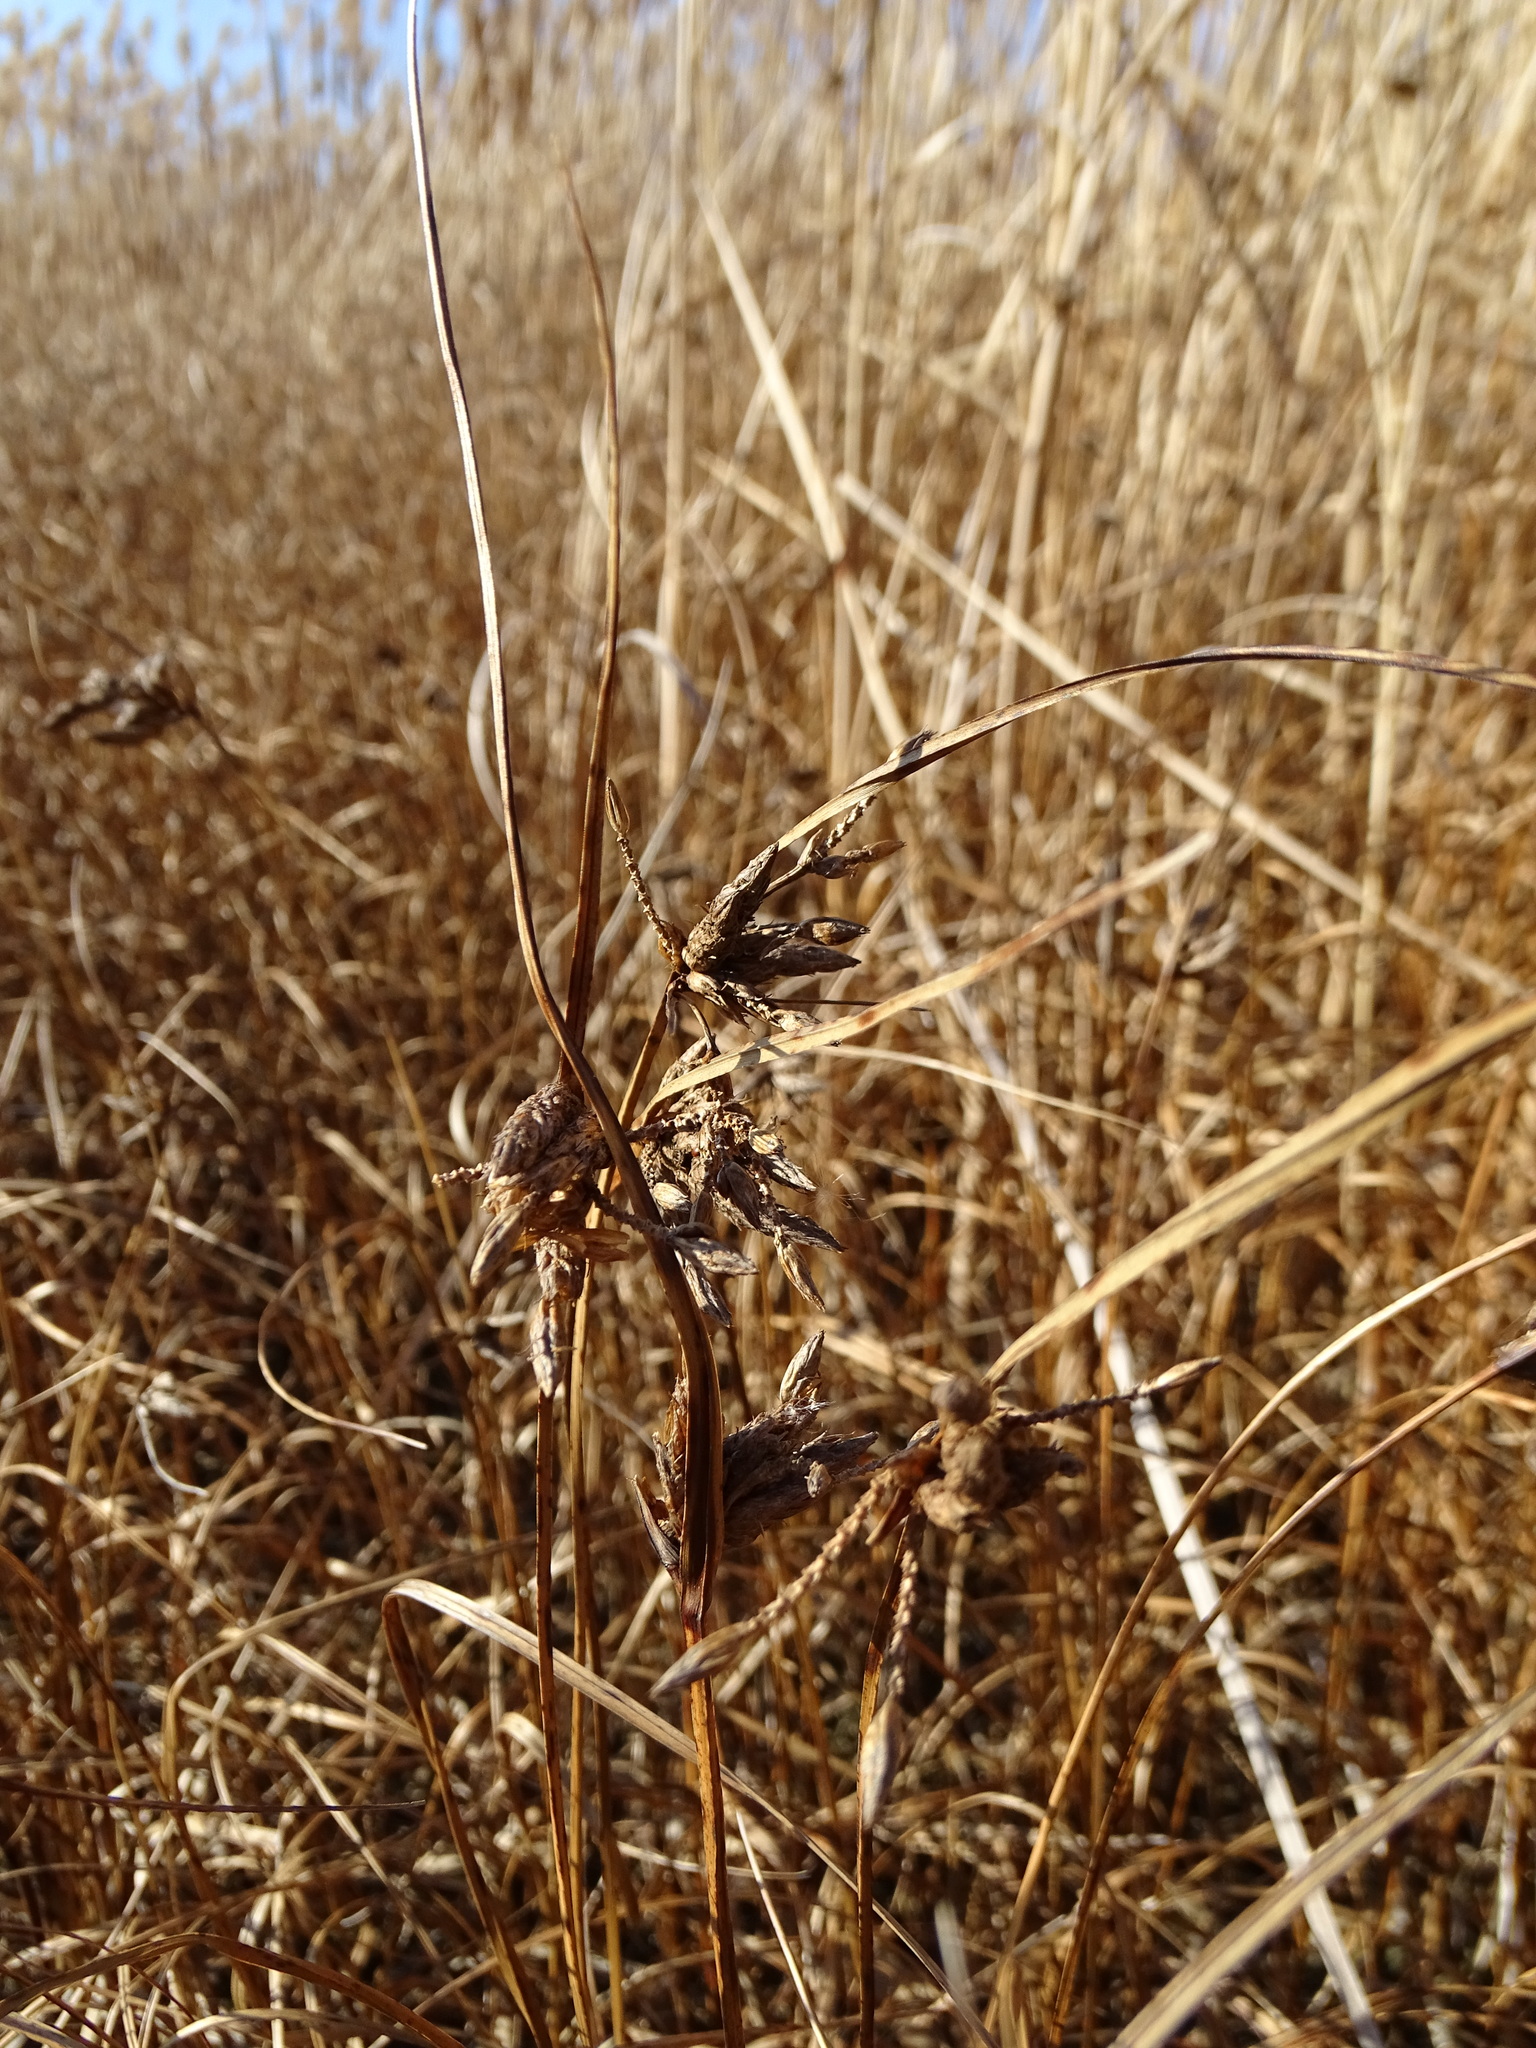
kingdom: Plantae
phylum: Tracheophyta
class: Liliopsida
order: Poales
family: Cyperaceae
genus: Bolboschoenus
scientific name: Bolboschoenus maritimus
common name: Sea club-rush
